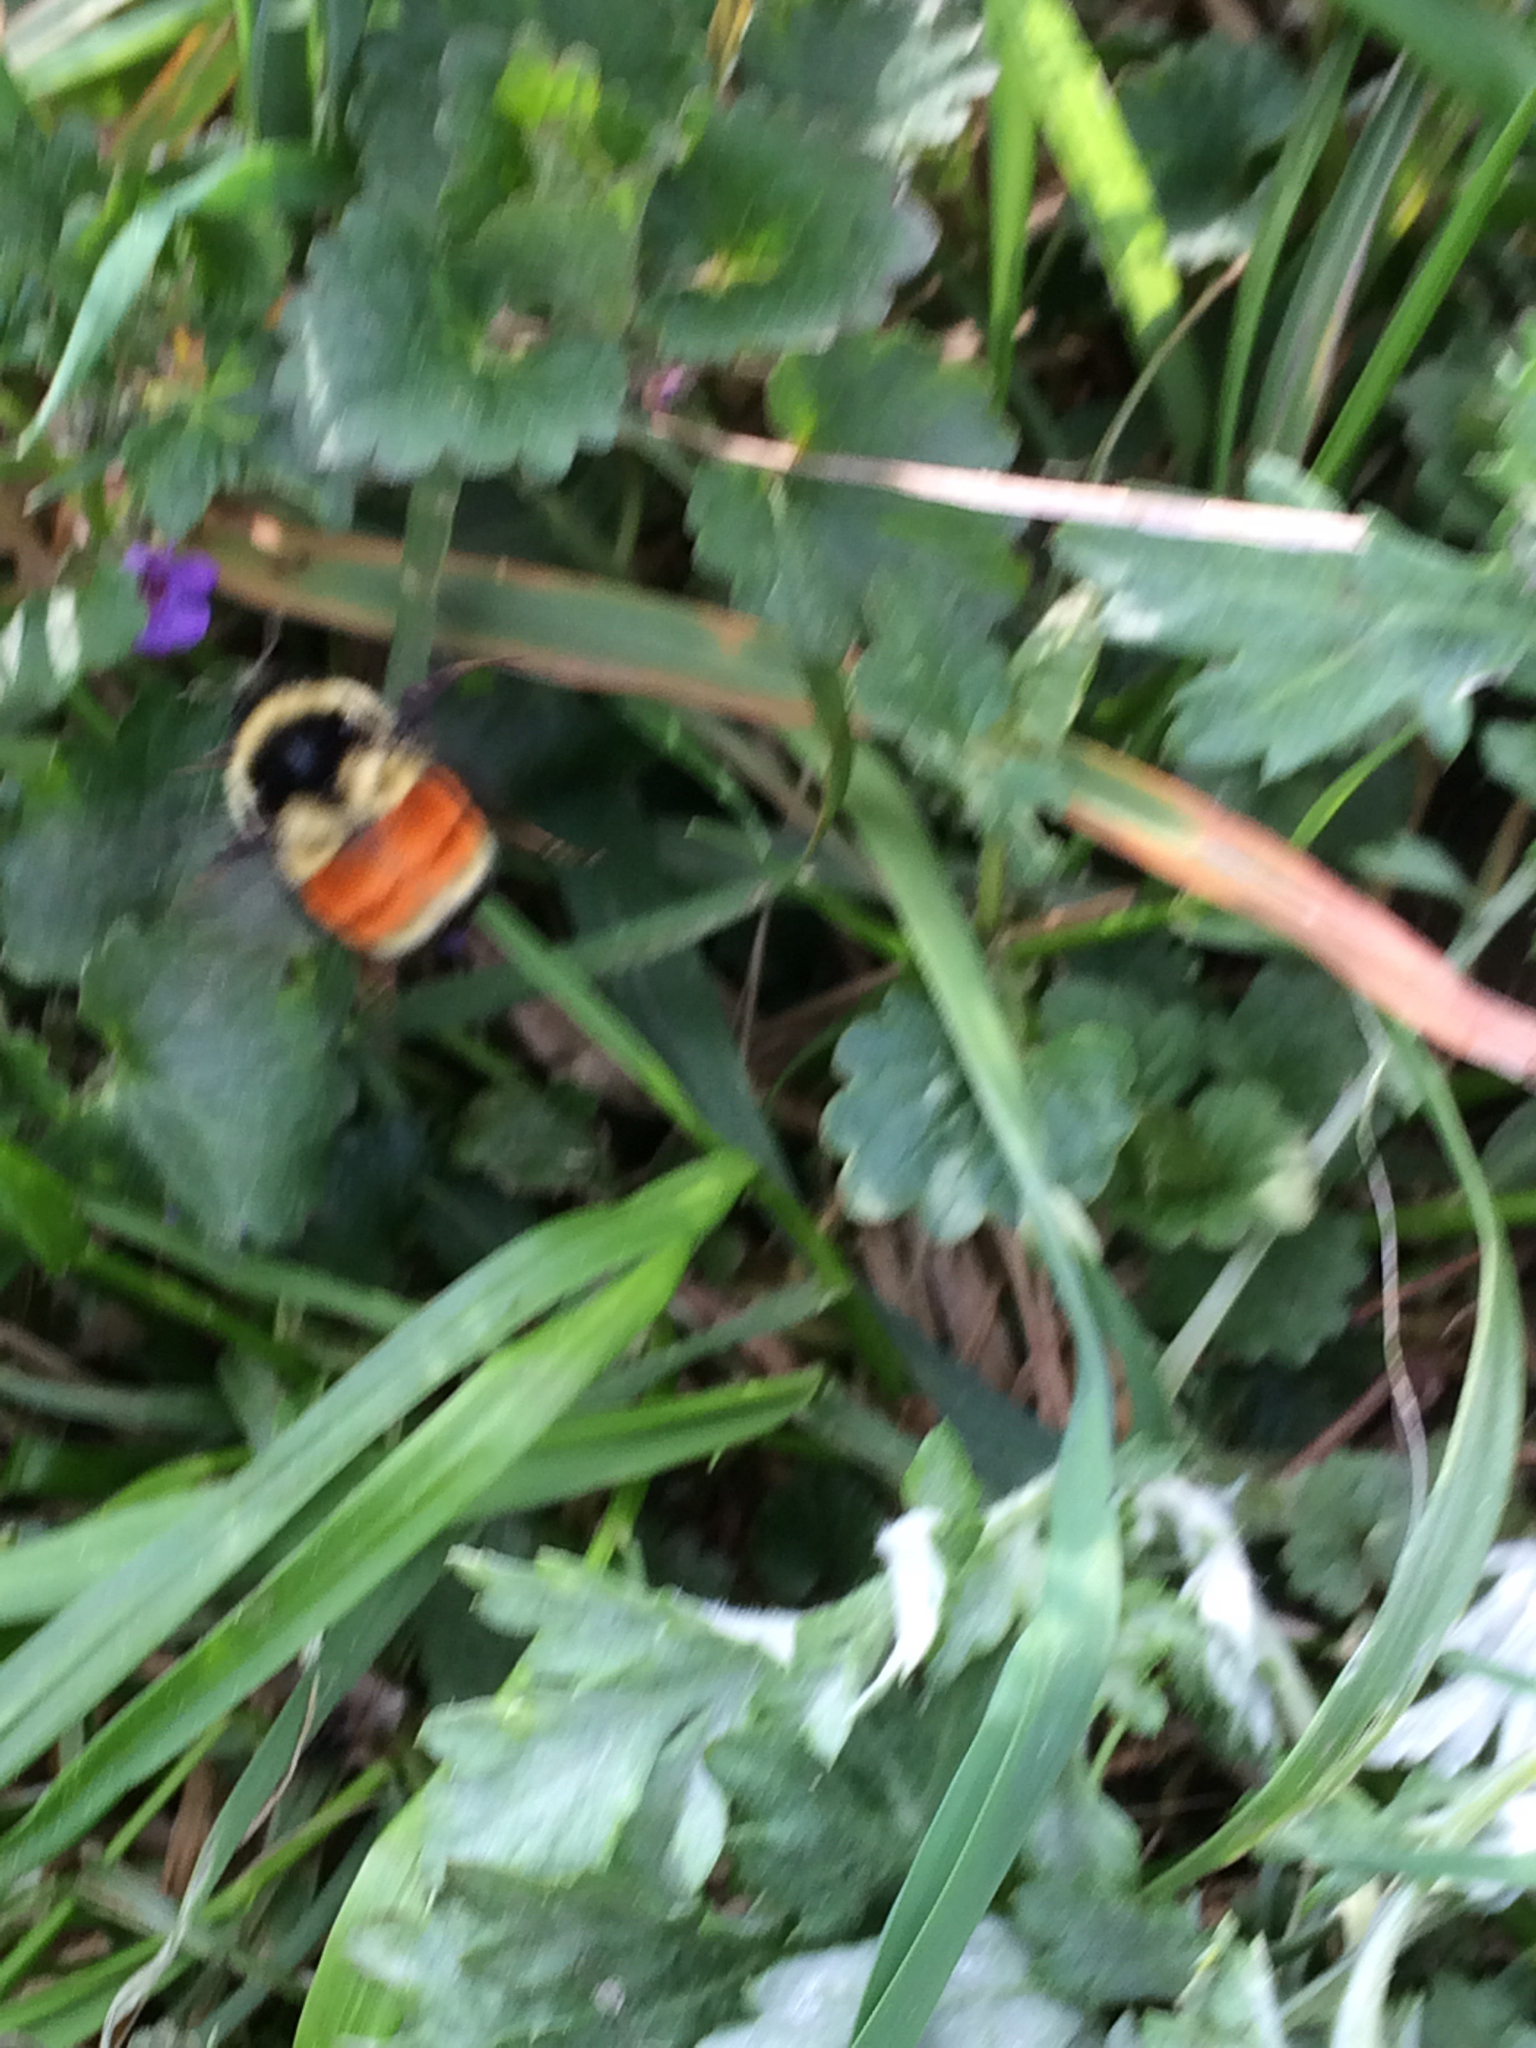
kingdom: Animalia
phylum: Arthropoda
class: Insecta
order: Hymenoptera
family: Apidae
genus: Bombus
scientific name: Bombus ternarius
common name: Tri-colored bumble bee
